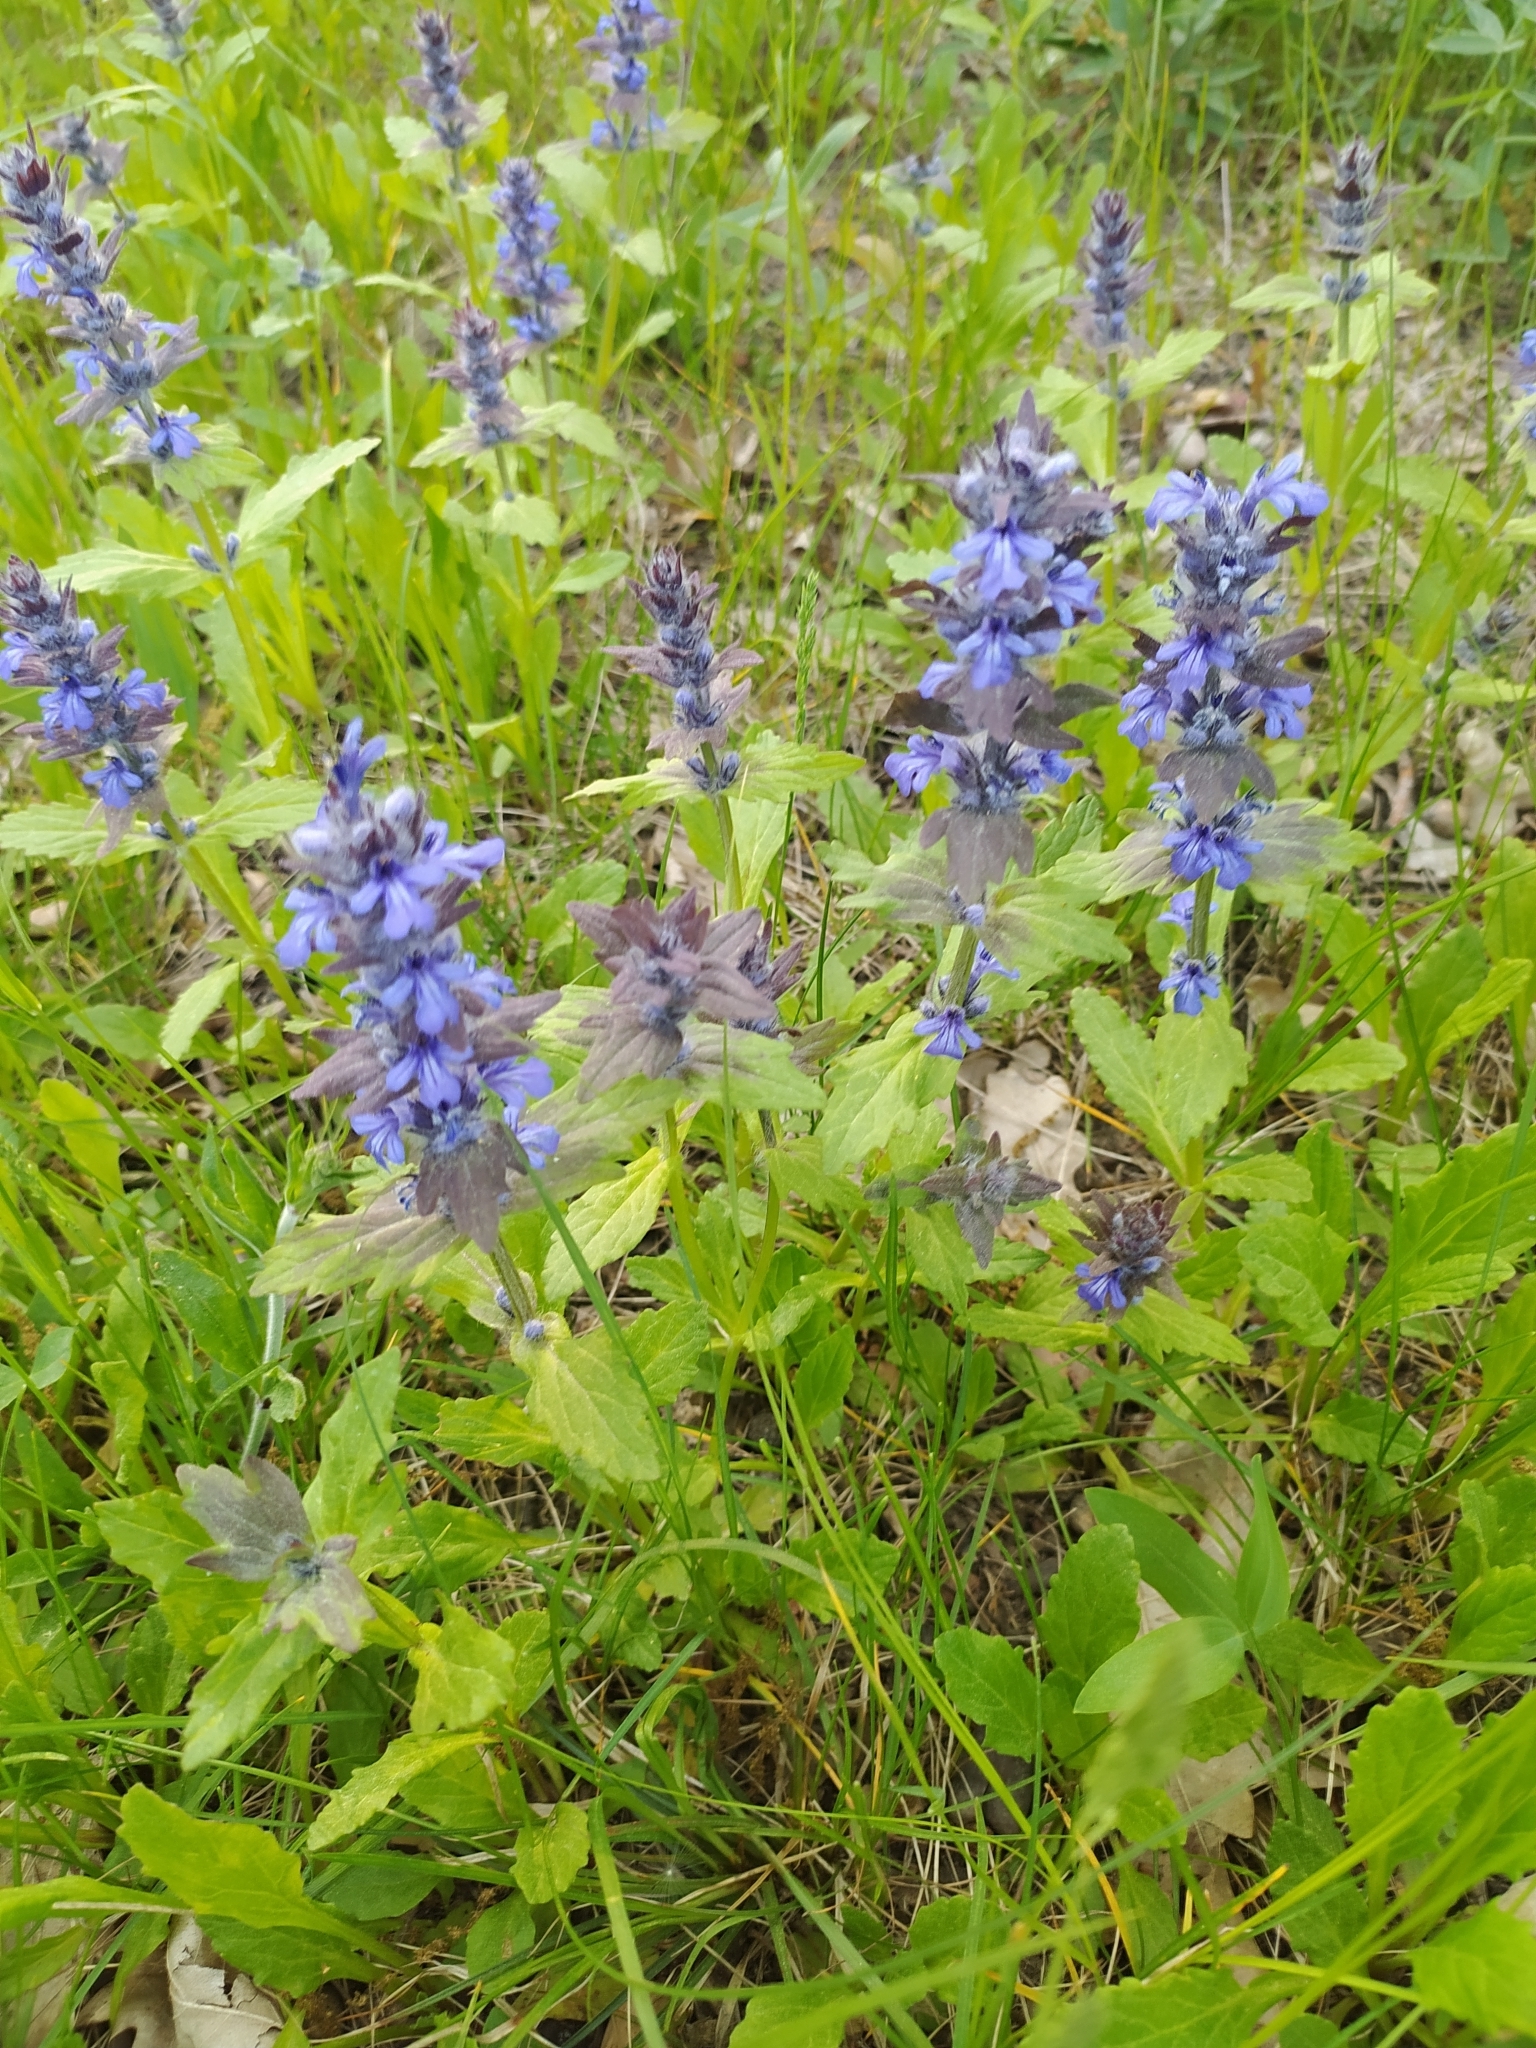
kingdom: Plantae
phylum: Tracheophyta
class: Magnoliopsida
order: Lamiales
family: Lamiaceae
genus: Ajuga
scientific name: Ajuga genevensis
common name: Blue bugle
